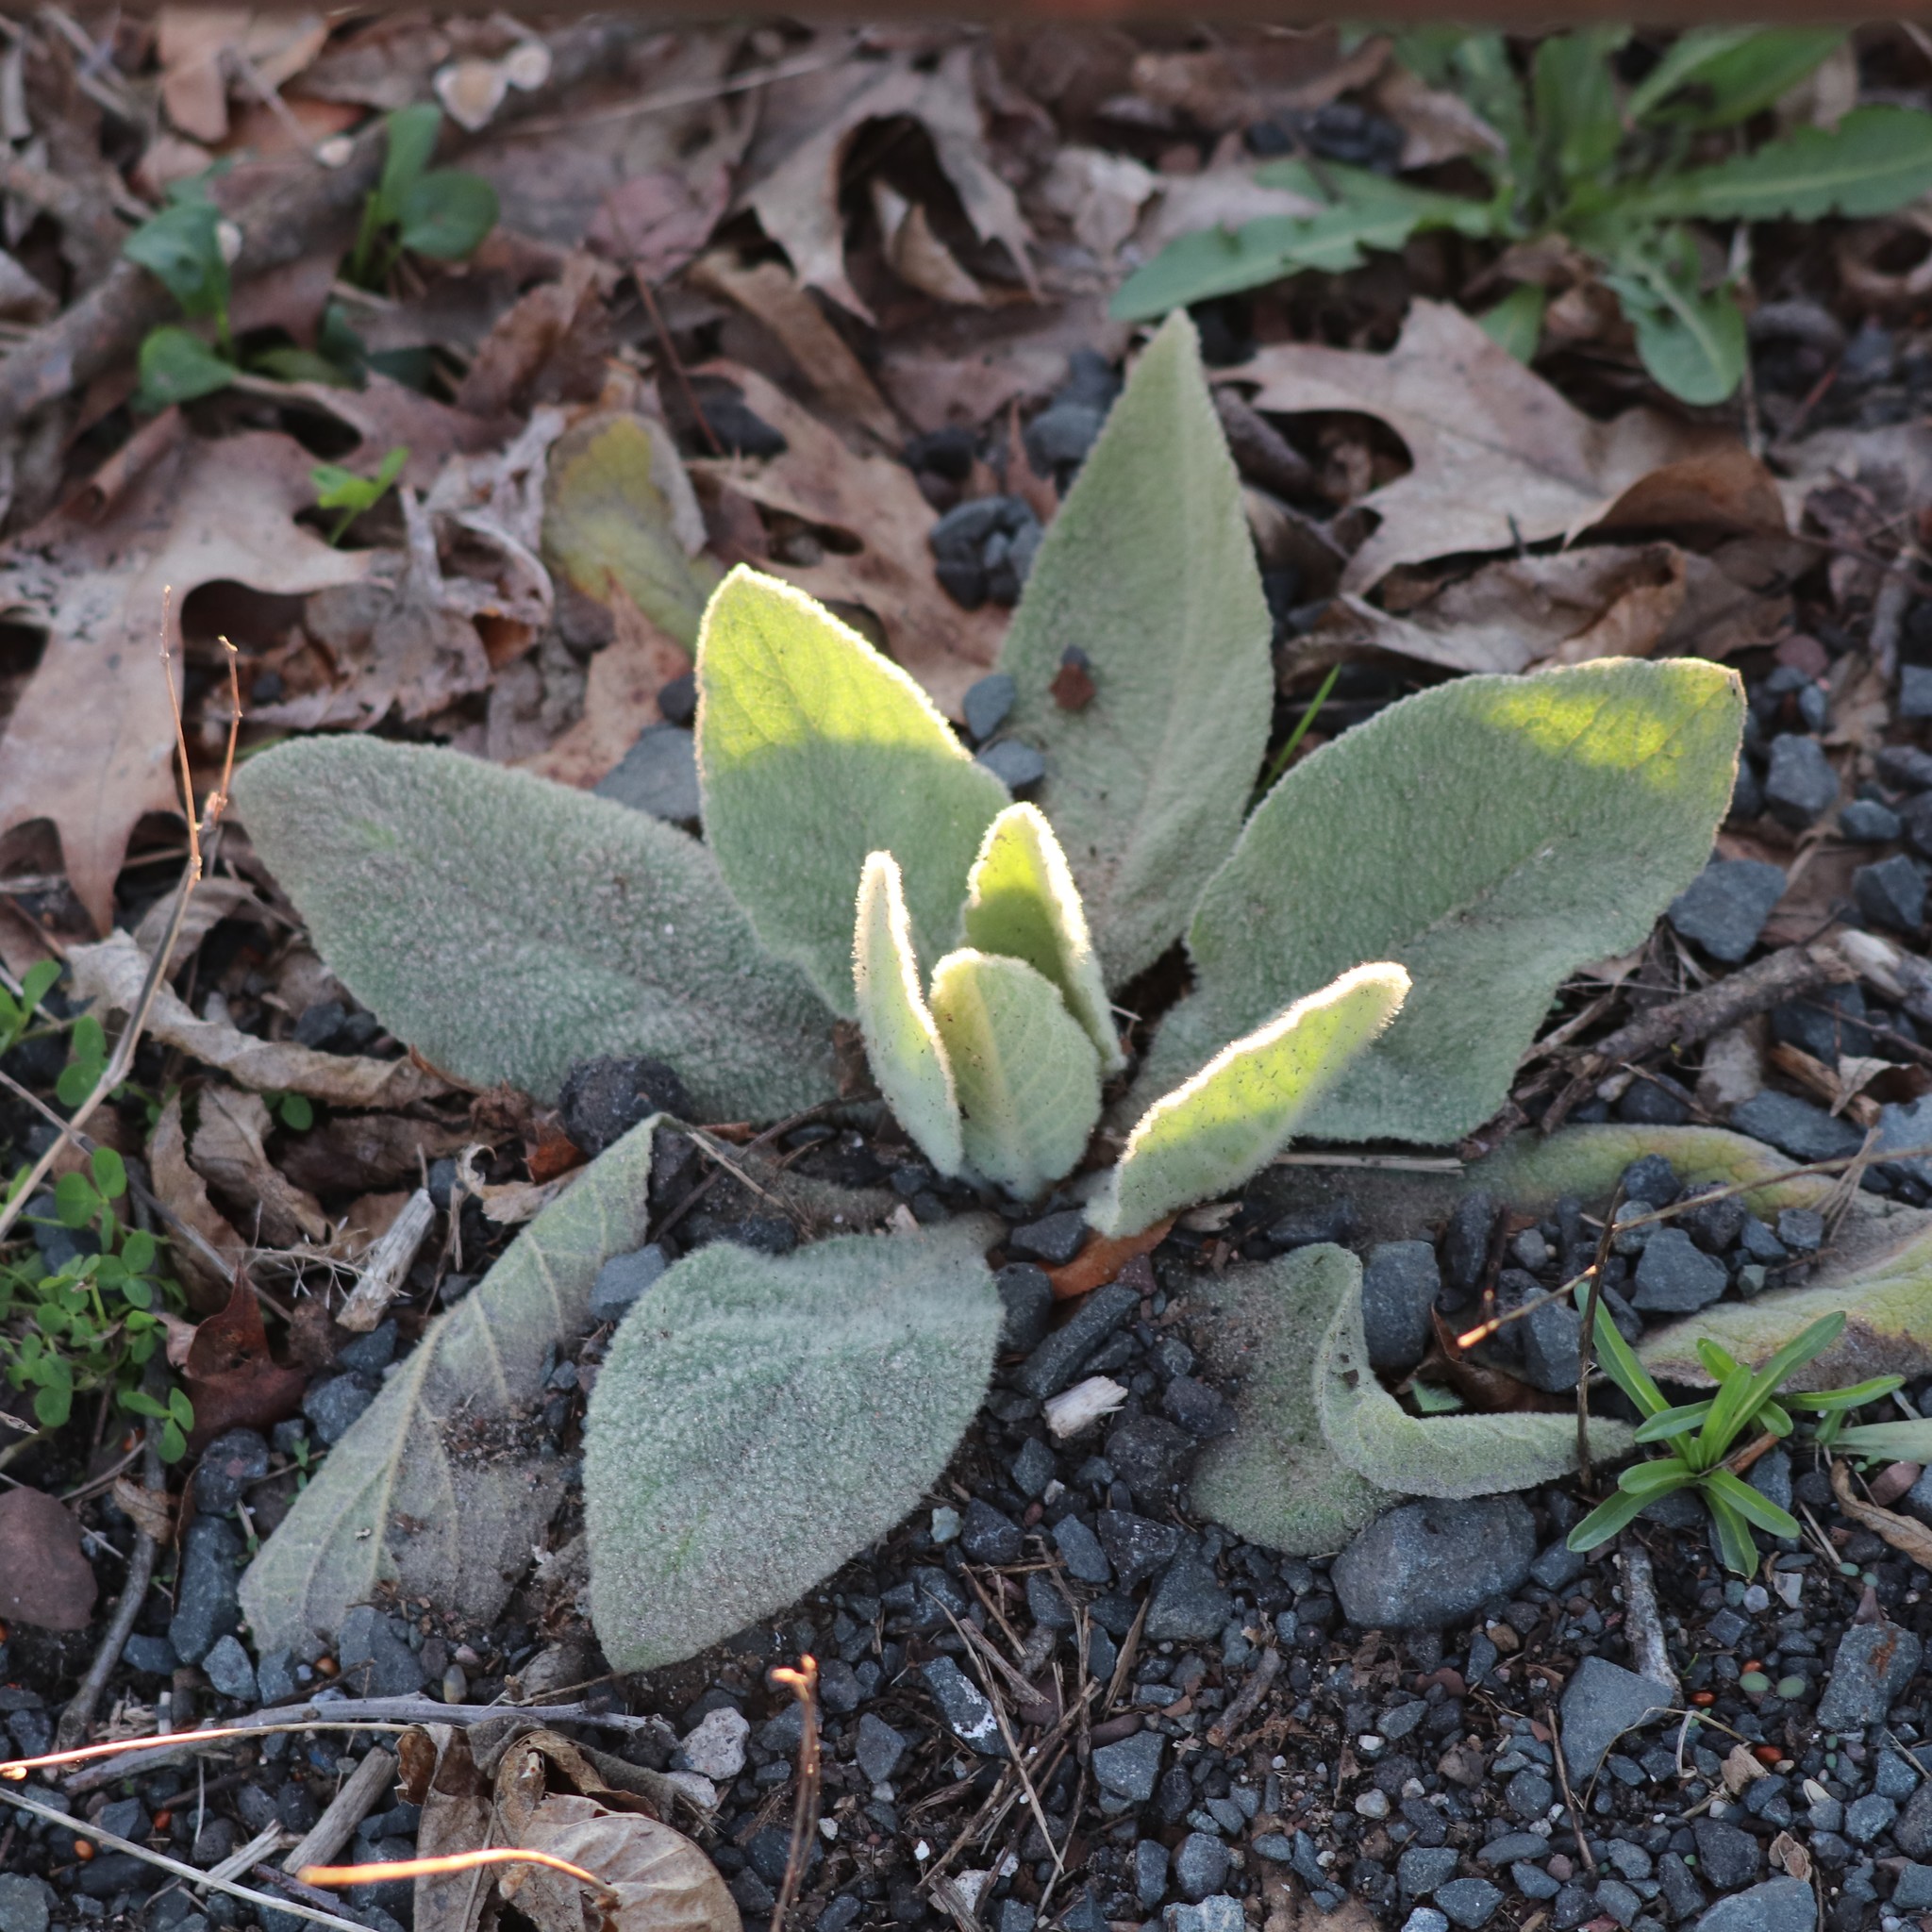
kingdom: Plantae
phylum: Tracheophyta
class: Magnoliopsida
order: Lamiales
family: Scrophulariaceae
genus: Verbascum
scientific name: Verbascum thapsus
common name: Common mullein
